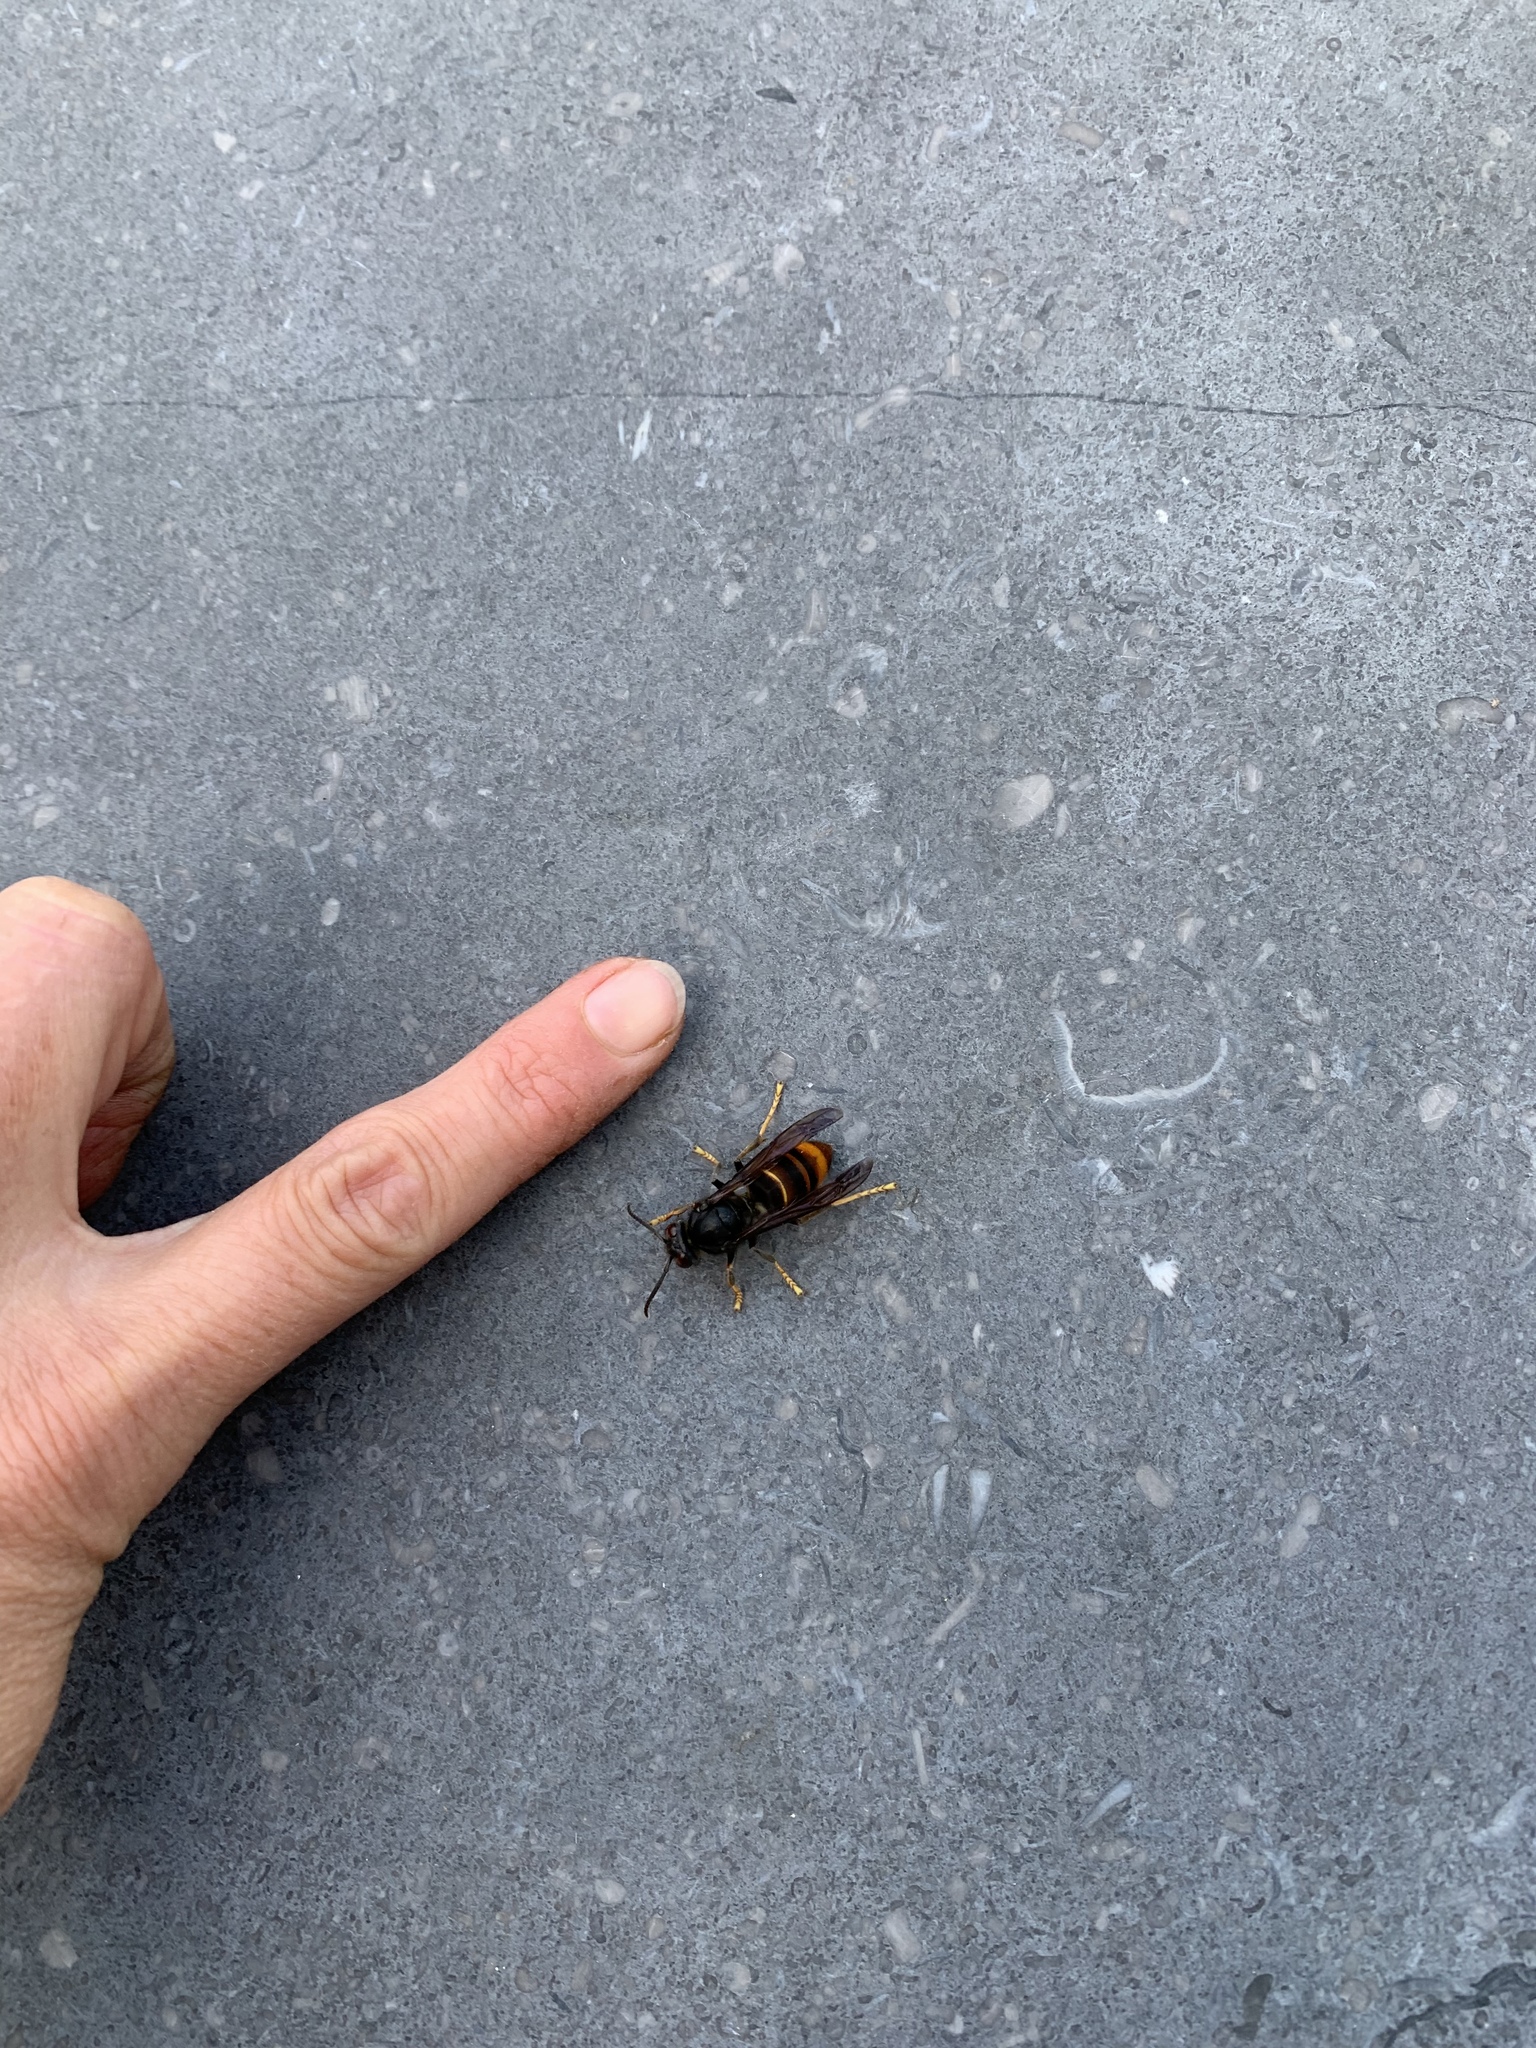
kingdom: Animalia
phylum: Arthropoda
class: Insecta
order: Hymenoptera
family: Vespidae
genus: Vespa
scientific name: Vespa velutina
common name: Asian hornet
